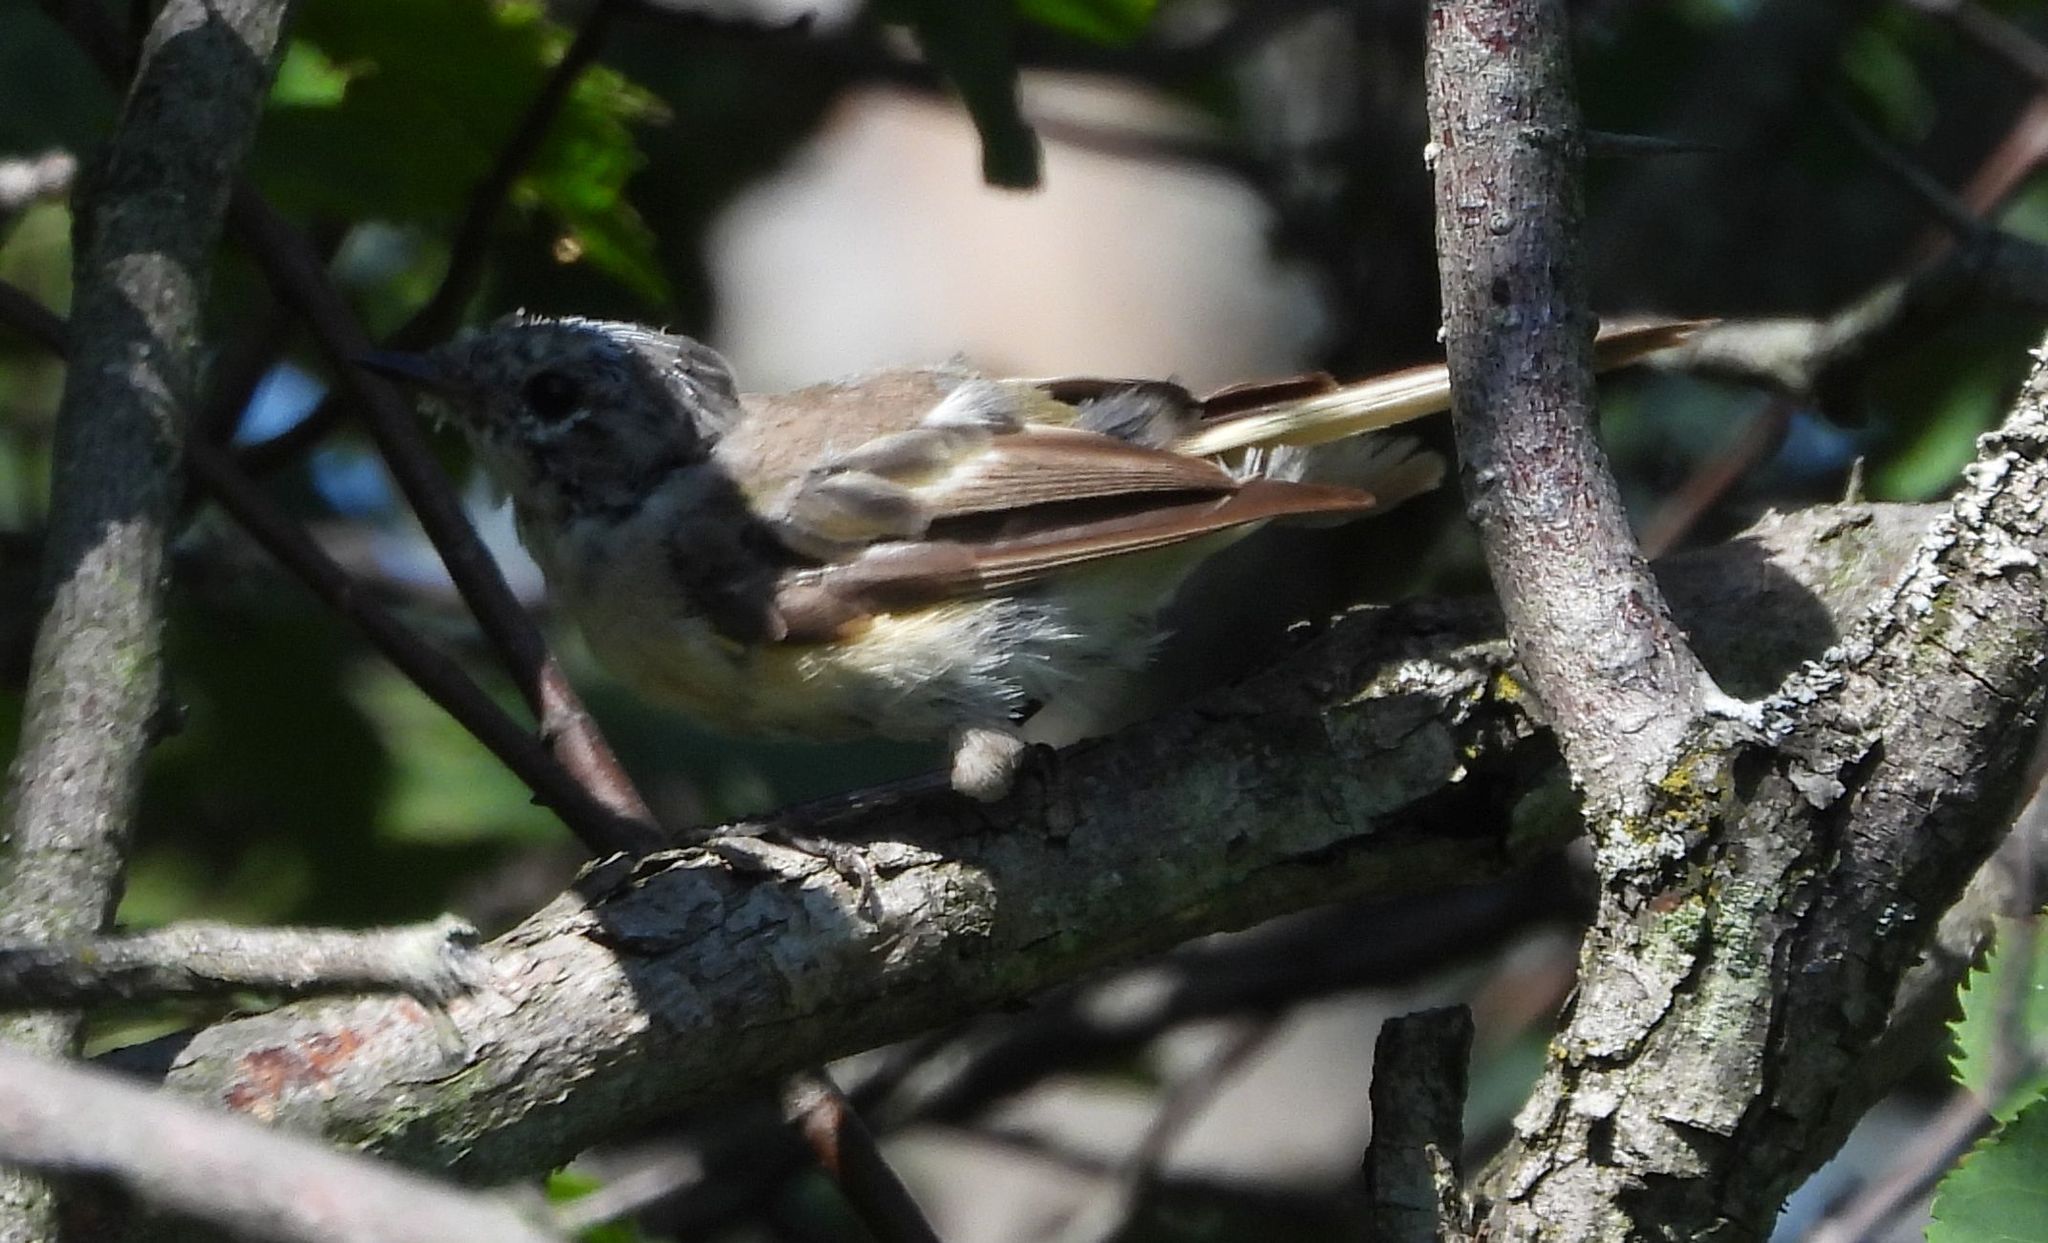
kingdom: Animalia
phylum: Chordata
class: Aves
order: Passeriformes
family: Parulidae
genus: Setophaga
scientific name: Setophaga ruticilla
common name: American redstart
